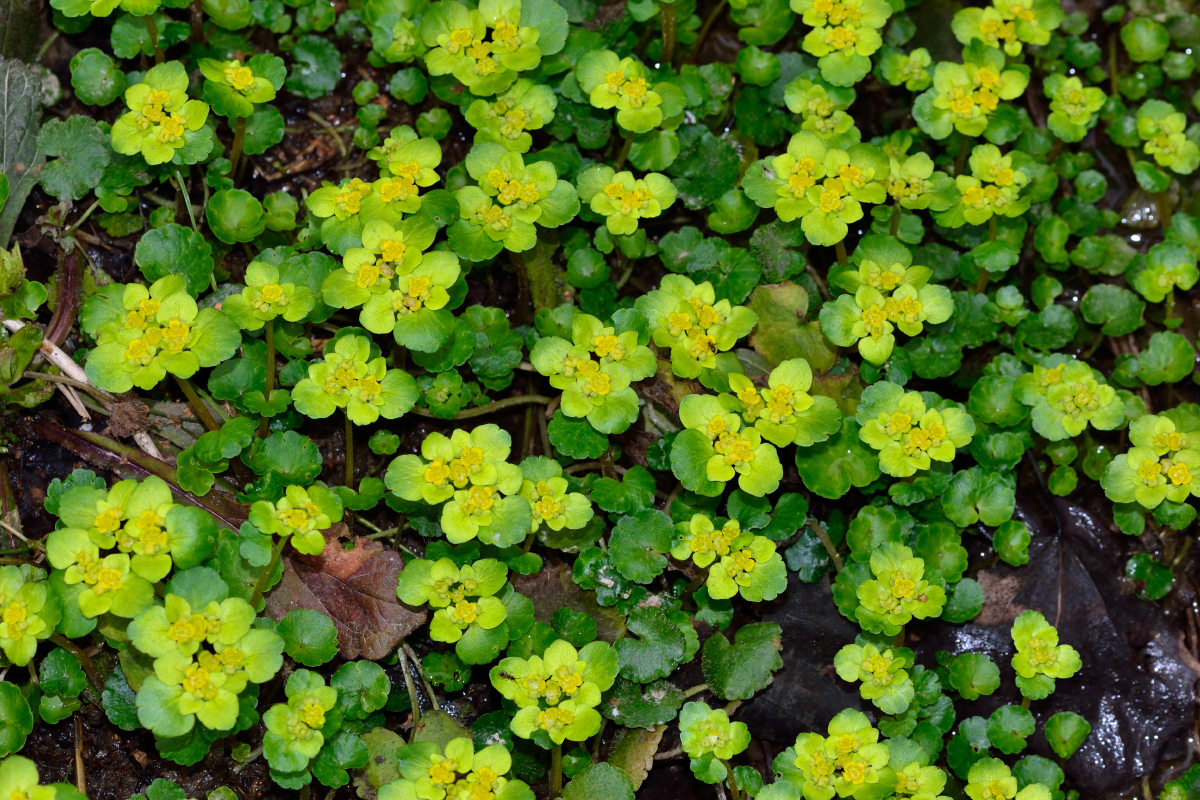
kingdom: Plantae
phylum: Tracheophyta
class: Magnoliopsida
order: Saxifragales
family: Saxifragaceae
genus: Chrysosplenium
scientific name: Chrysosplenium alternifolium
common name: Alternate-leaved golden-saxifrage
